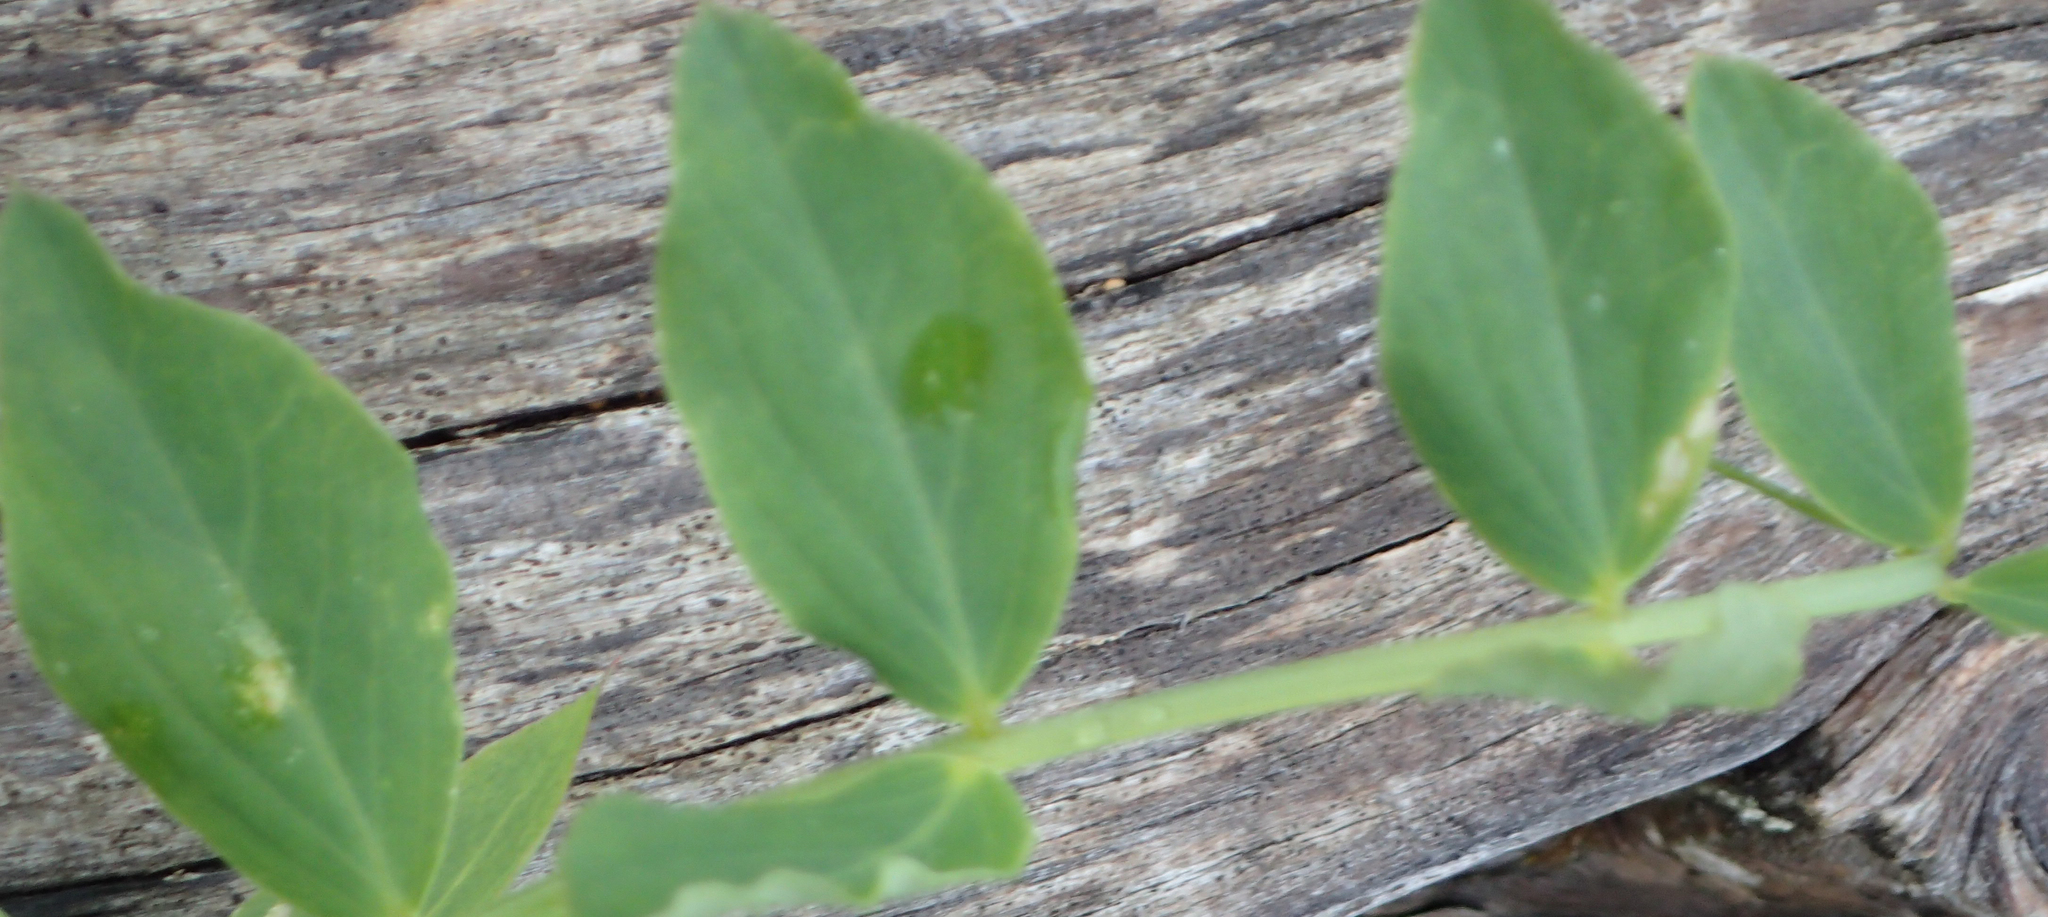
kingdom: Plantae
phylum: Tracheophyta
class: Magnoliopsida
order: Fabales
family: Fabaceae
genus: Lathyrus
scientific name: Lathyrus japonicus
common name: Sea pea
